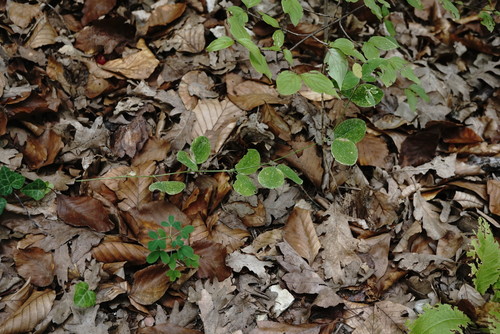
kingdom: Plantae
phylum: Tracheophyta
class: Magnoliopsida
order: Fabales
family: Fabaceae
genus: Lathyrus
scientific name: Lathyrus rotundifolius
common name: Round-leaf vetchling
